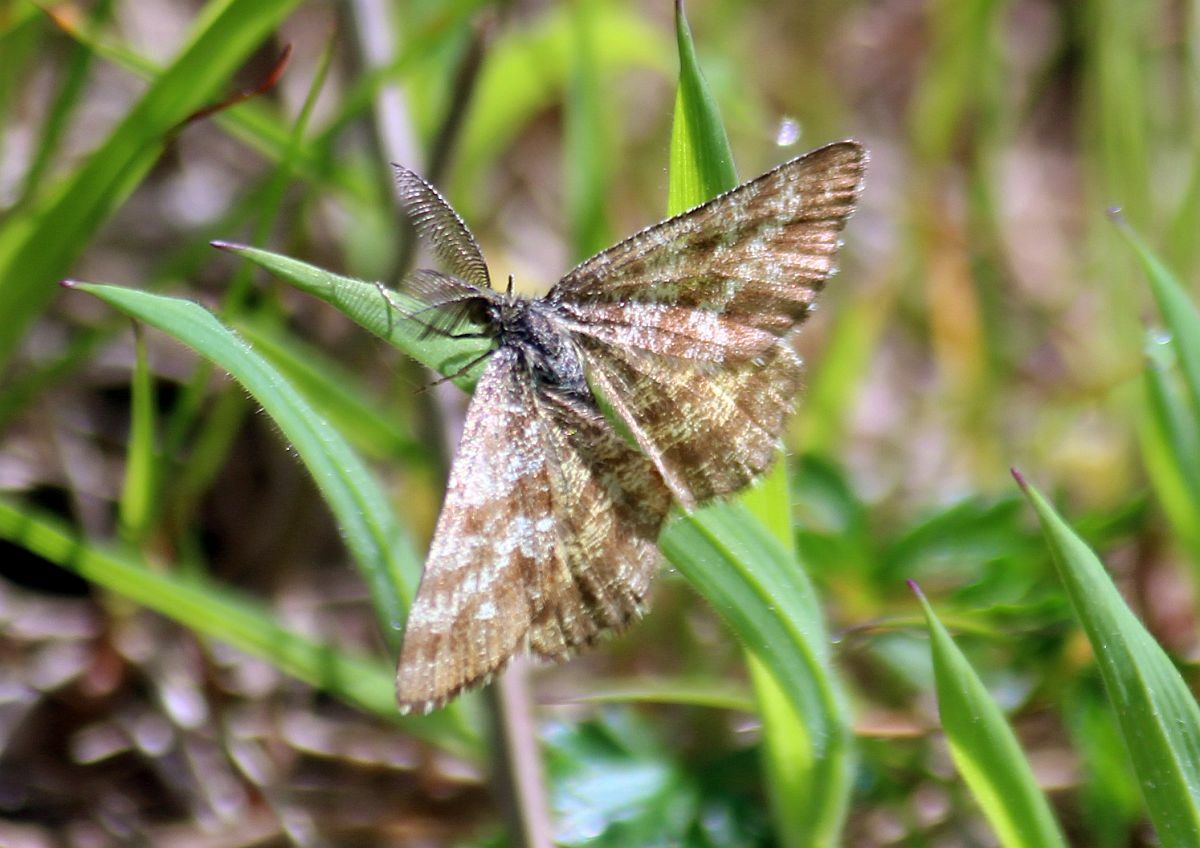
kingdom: Animalia
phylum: Arthropoda
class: Insecta
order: Lepidoptera
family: Geometridae
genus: Ematurga
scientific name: Ematurga atomaria
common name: Common heath
